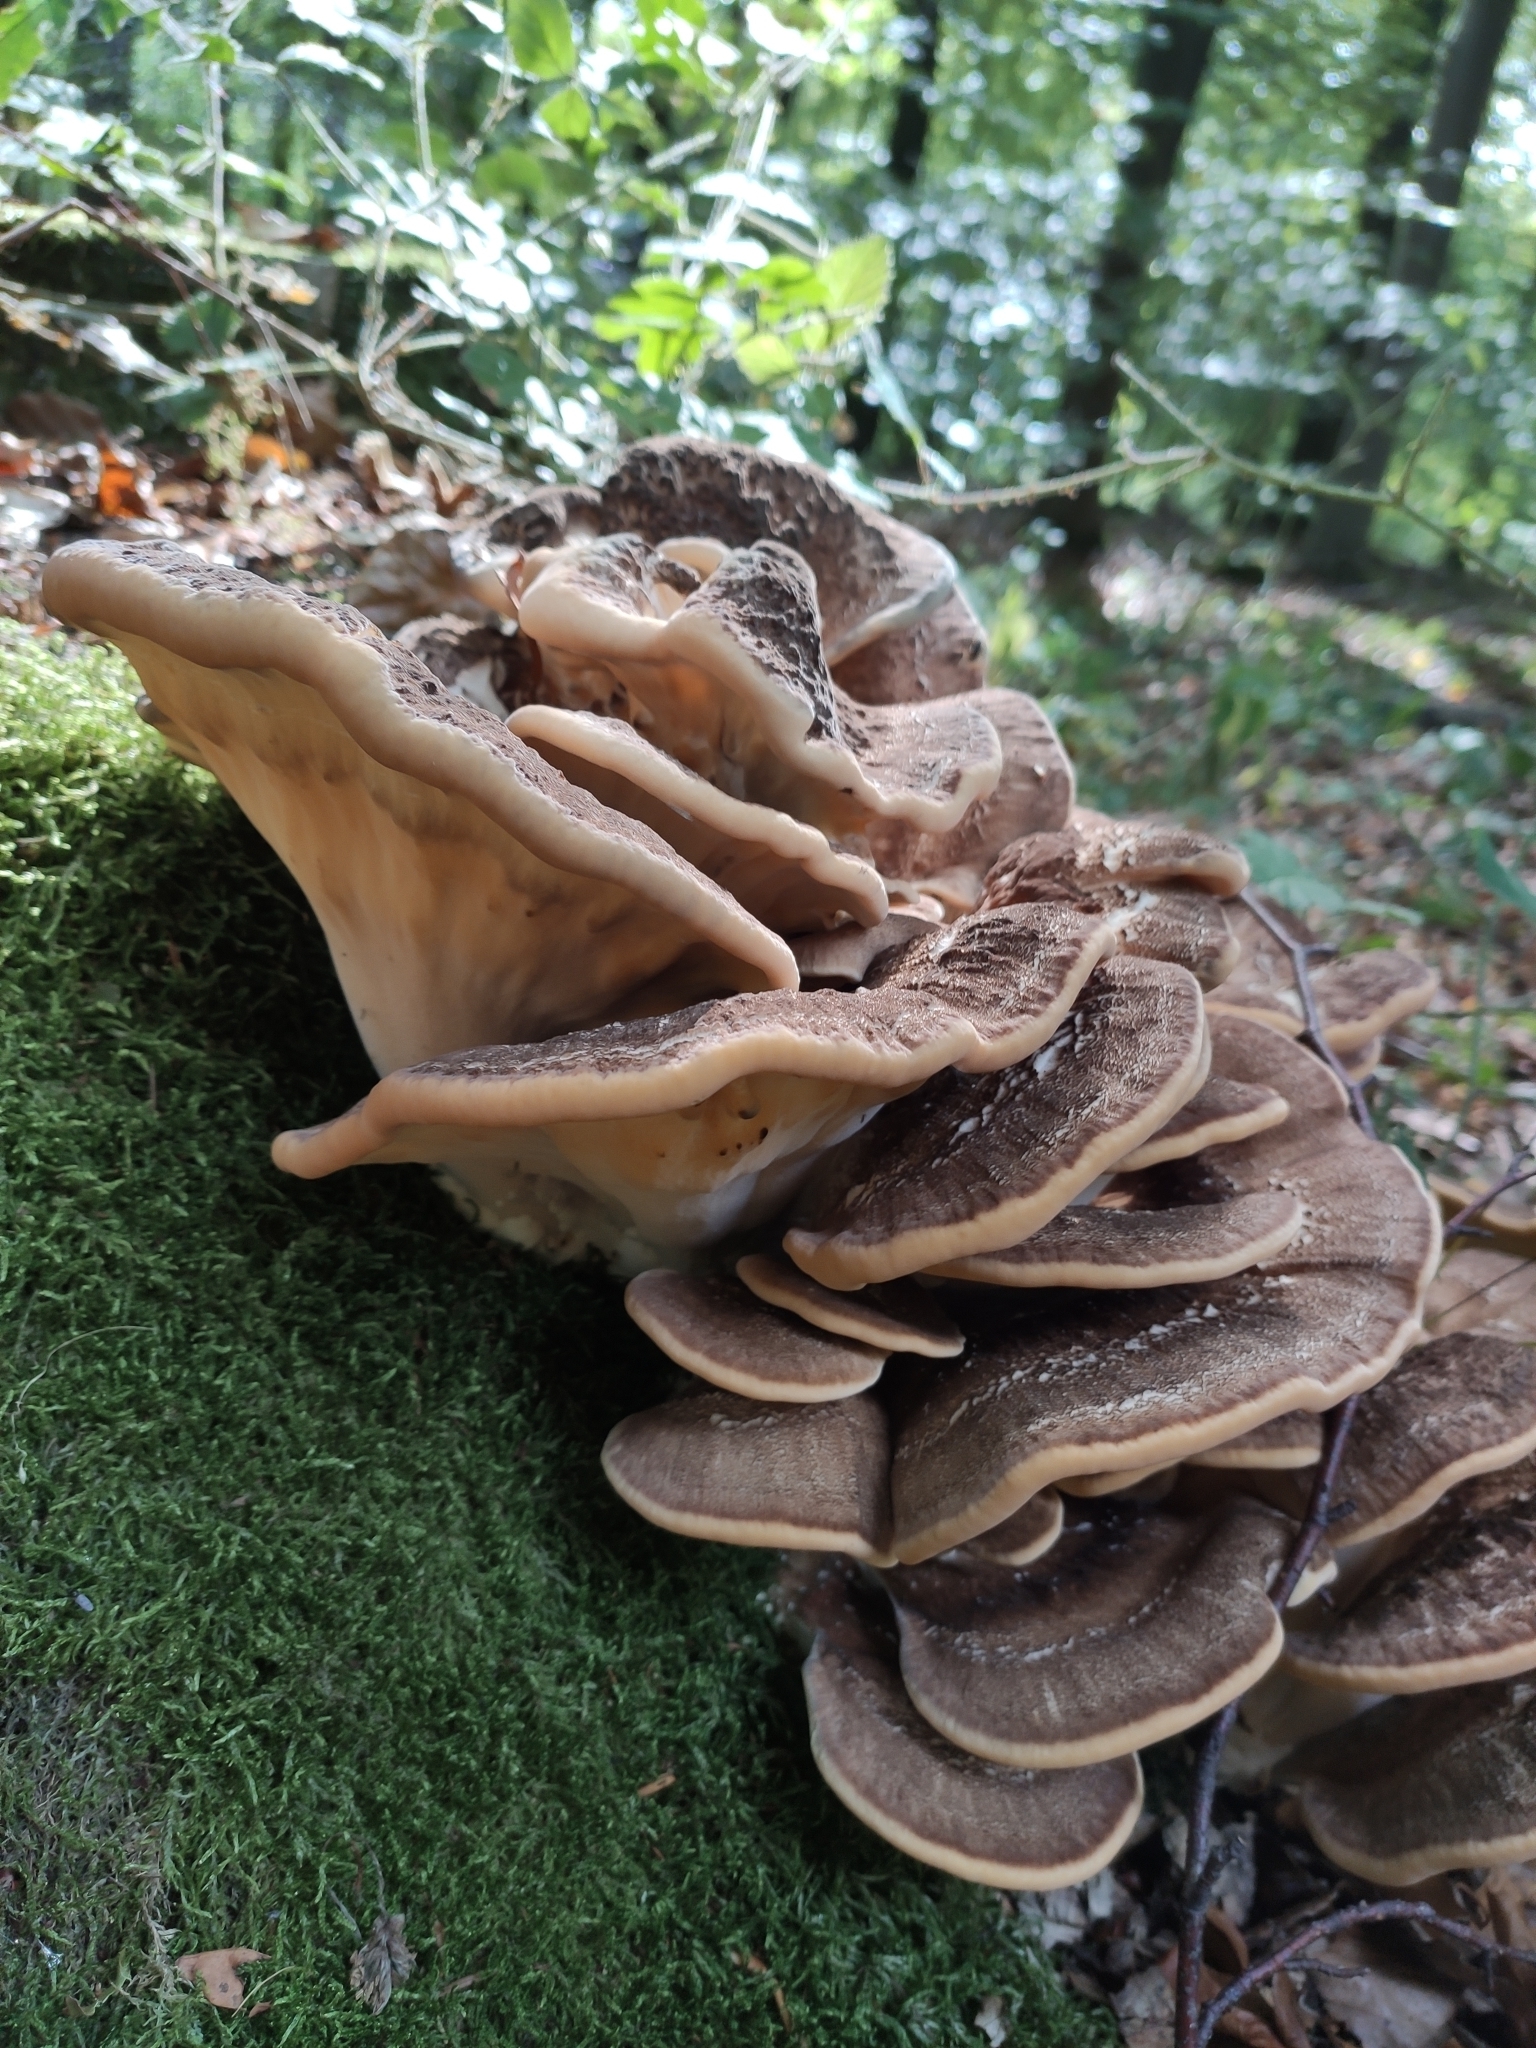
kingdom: Fungi
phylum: Basidiomycota
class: Agaricomycetes
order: Polyporales
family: Meripilaceae
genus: Meripilus
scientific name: Meripilus giganteus
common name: Giant polypore
